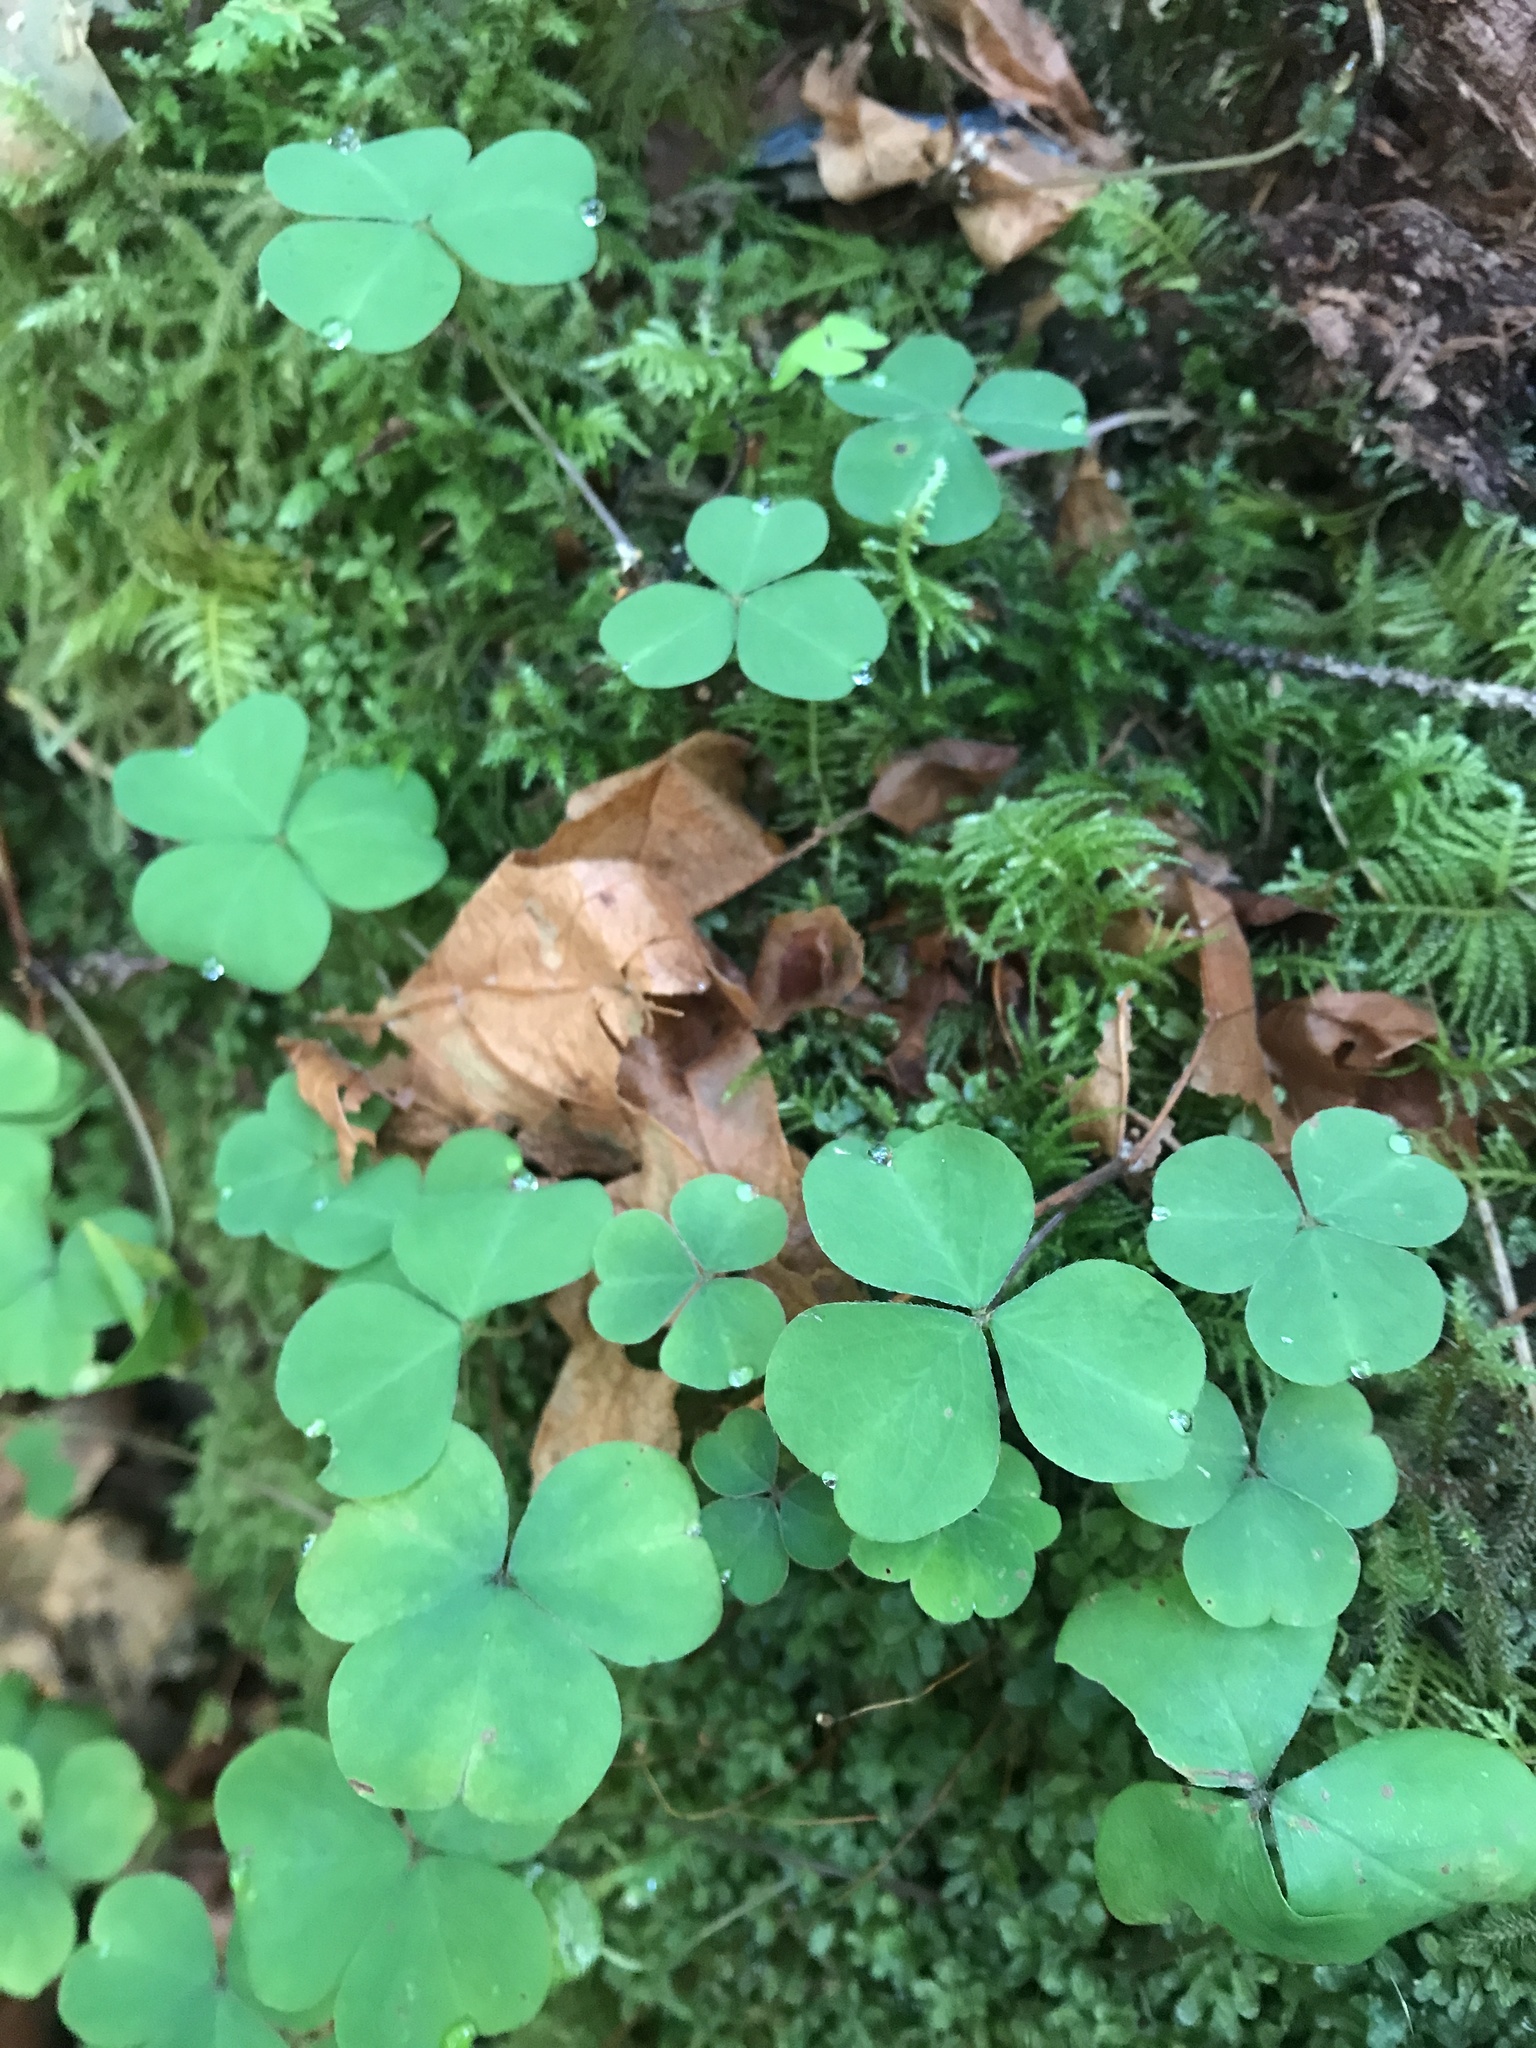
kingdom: Plantae
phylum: Tracheophyta
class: Magnoliopsida
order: Oxalidales
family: Oxalidaceae
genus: Oxalis
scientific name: Oxalis oregana
